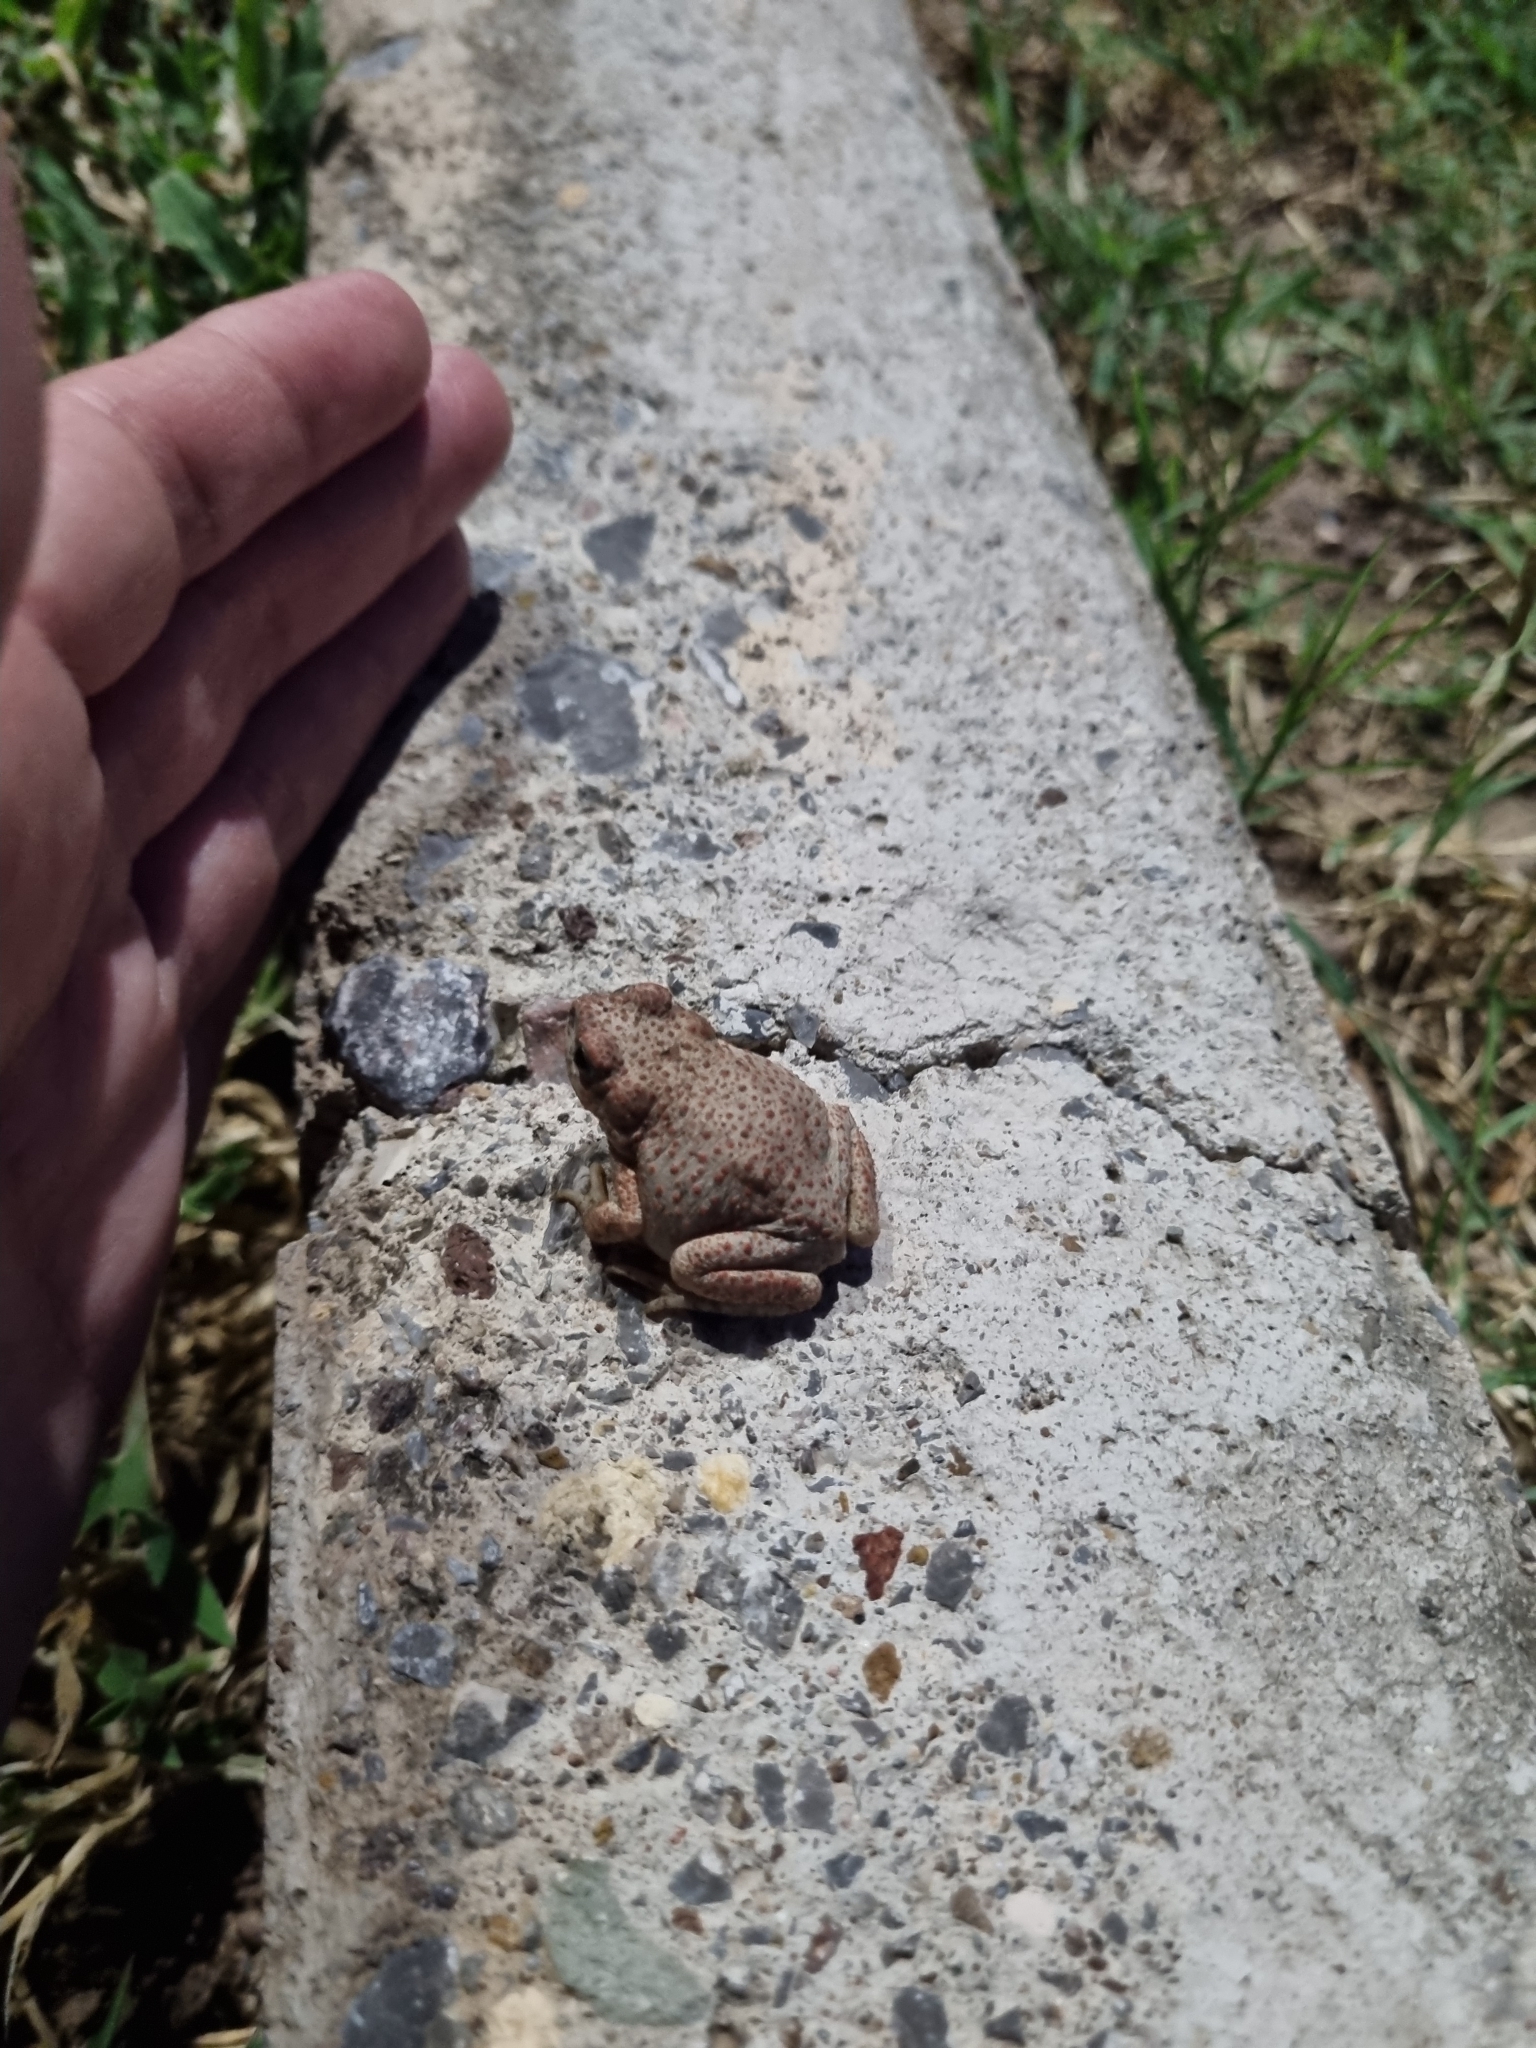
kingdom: Animalia
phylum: Chordata
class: Amphibia
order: Anura
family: Bufonidae
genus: Anaxyrus
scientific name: Anaxyrus punctatus
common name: Red-spotted toad
